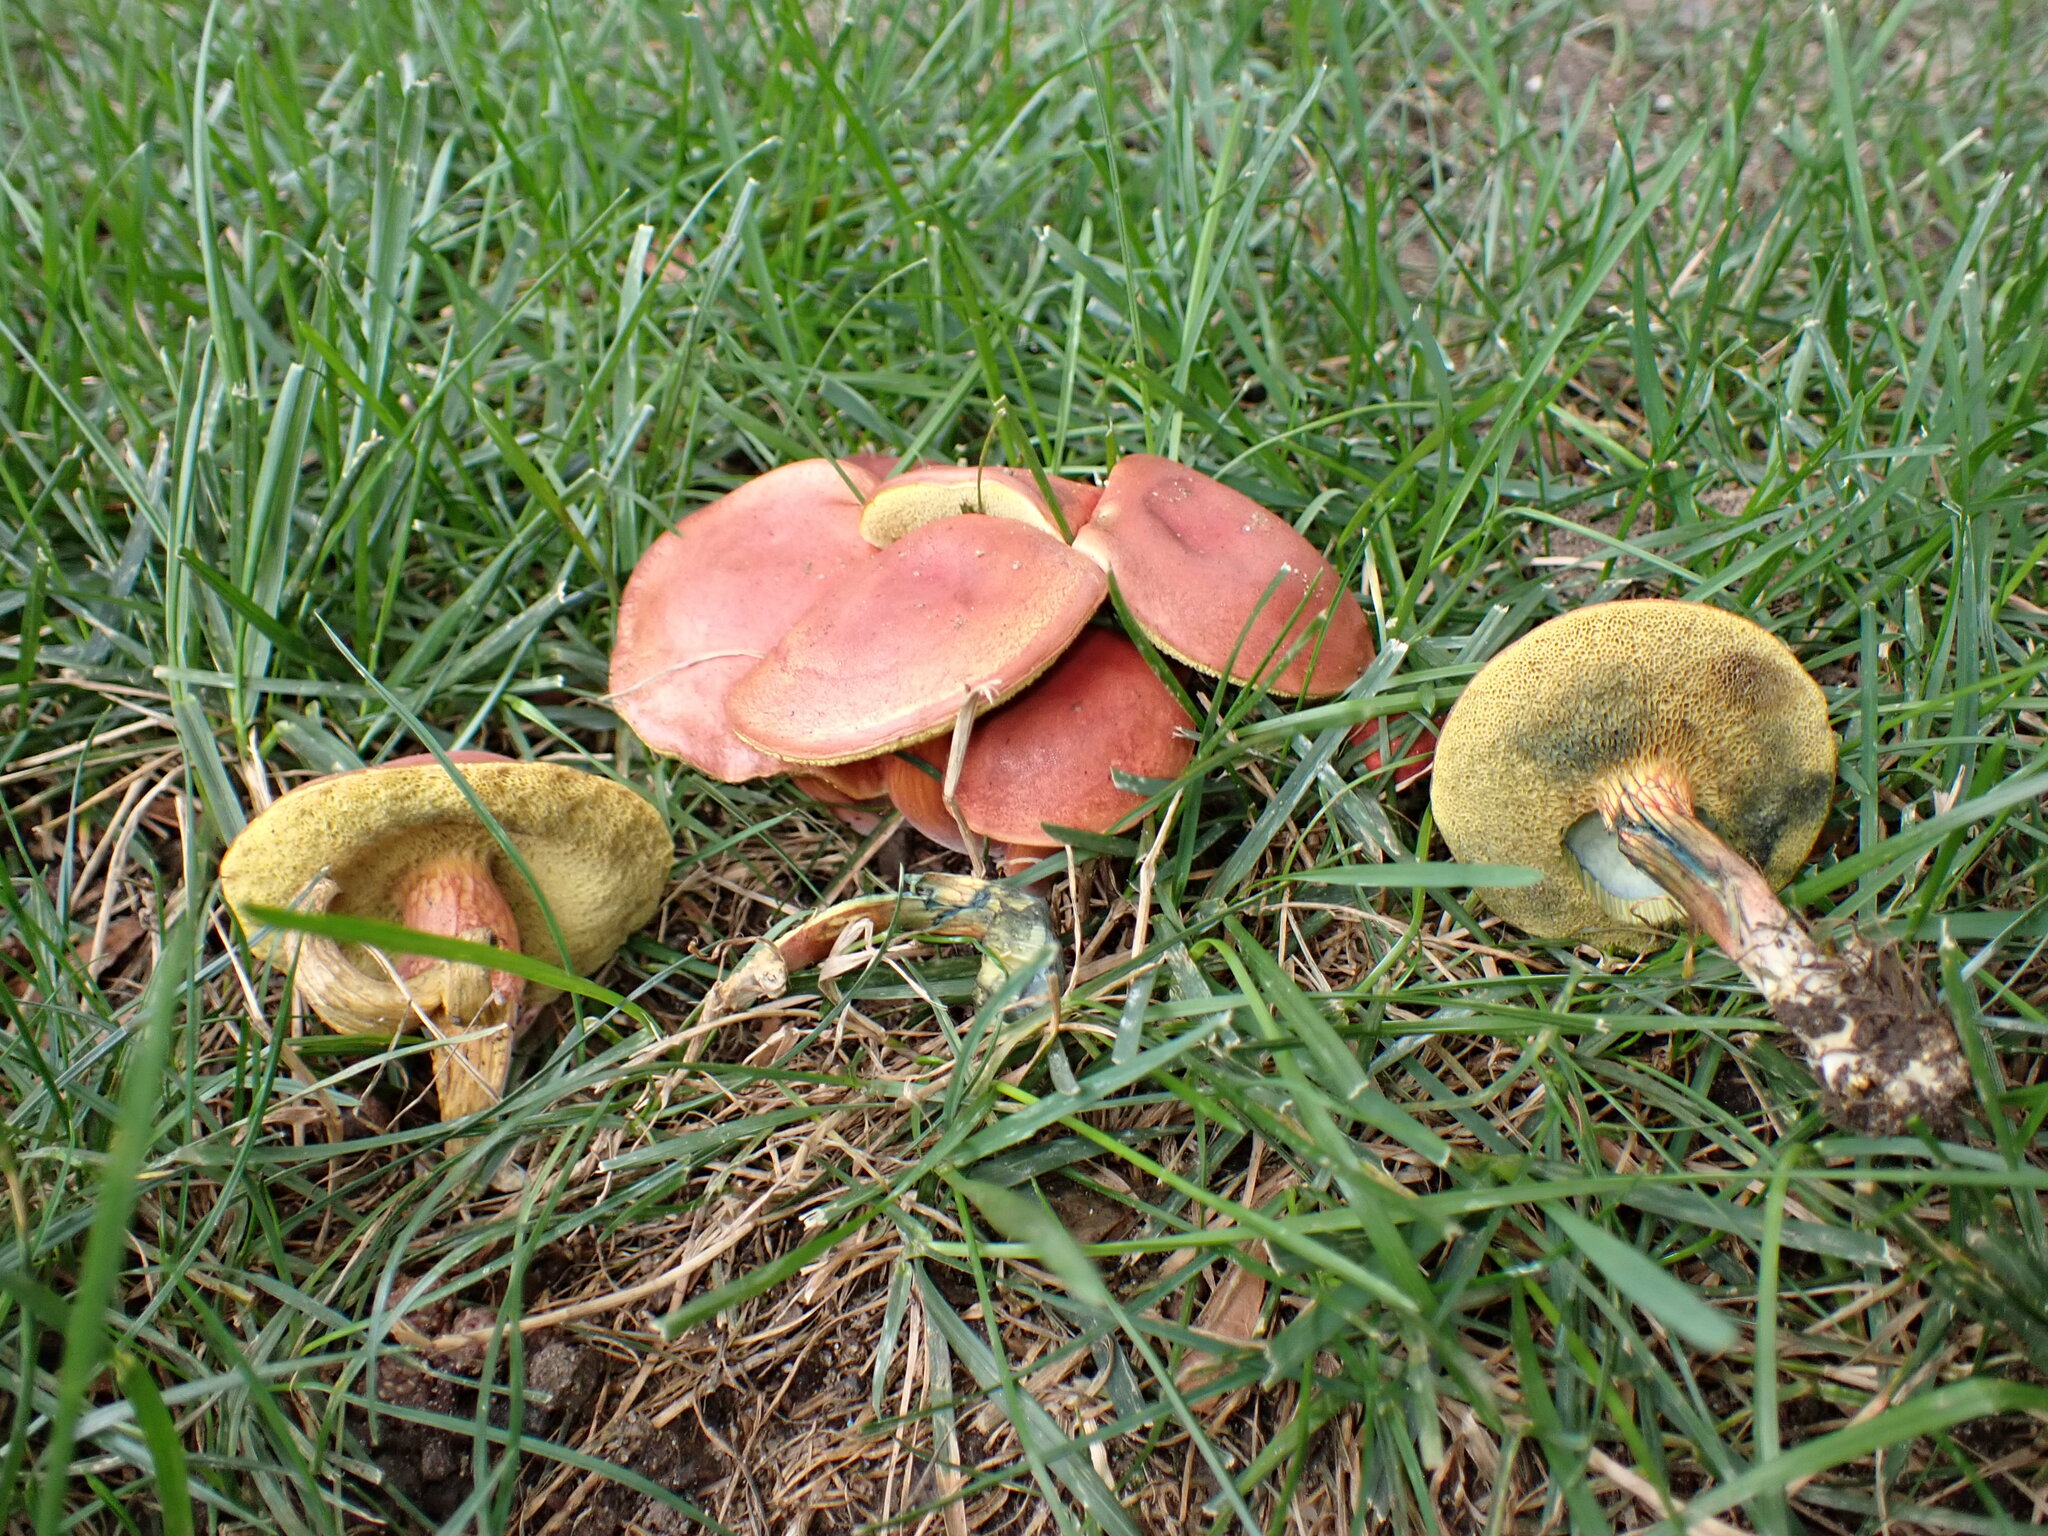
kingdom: Fungi
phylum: Basidiomycota
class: Agaricomycetes
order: Boletales
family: Boletaceae
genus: Hortiboletus
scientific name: Hortiboletus rubellus
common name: Ruby bolete
